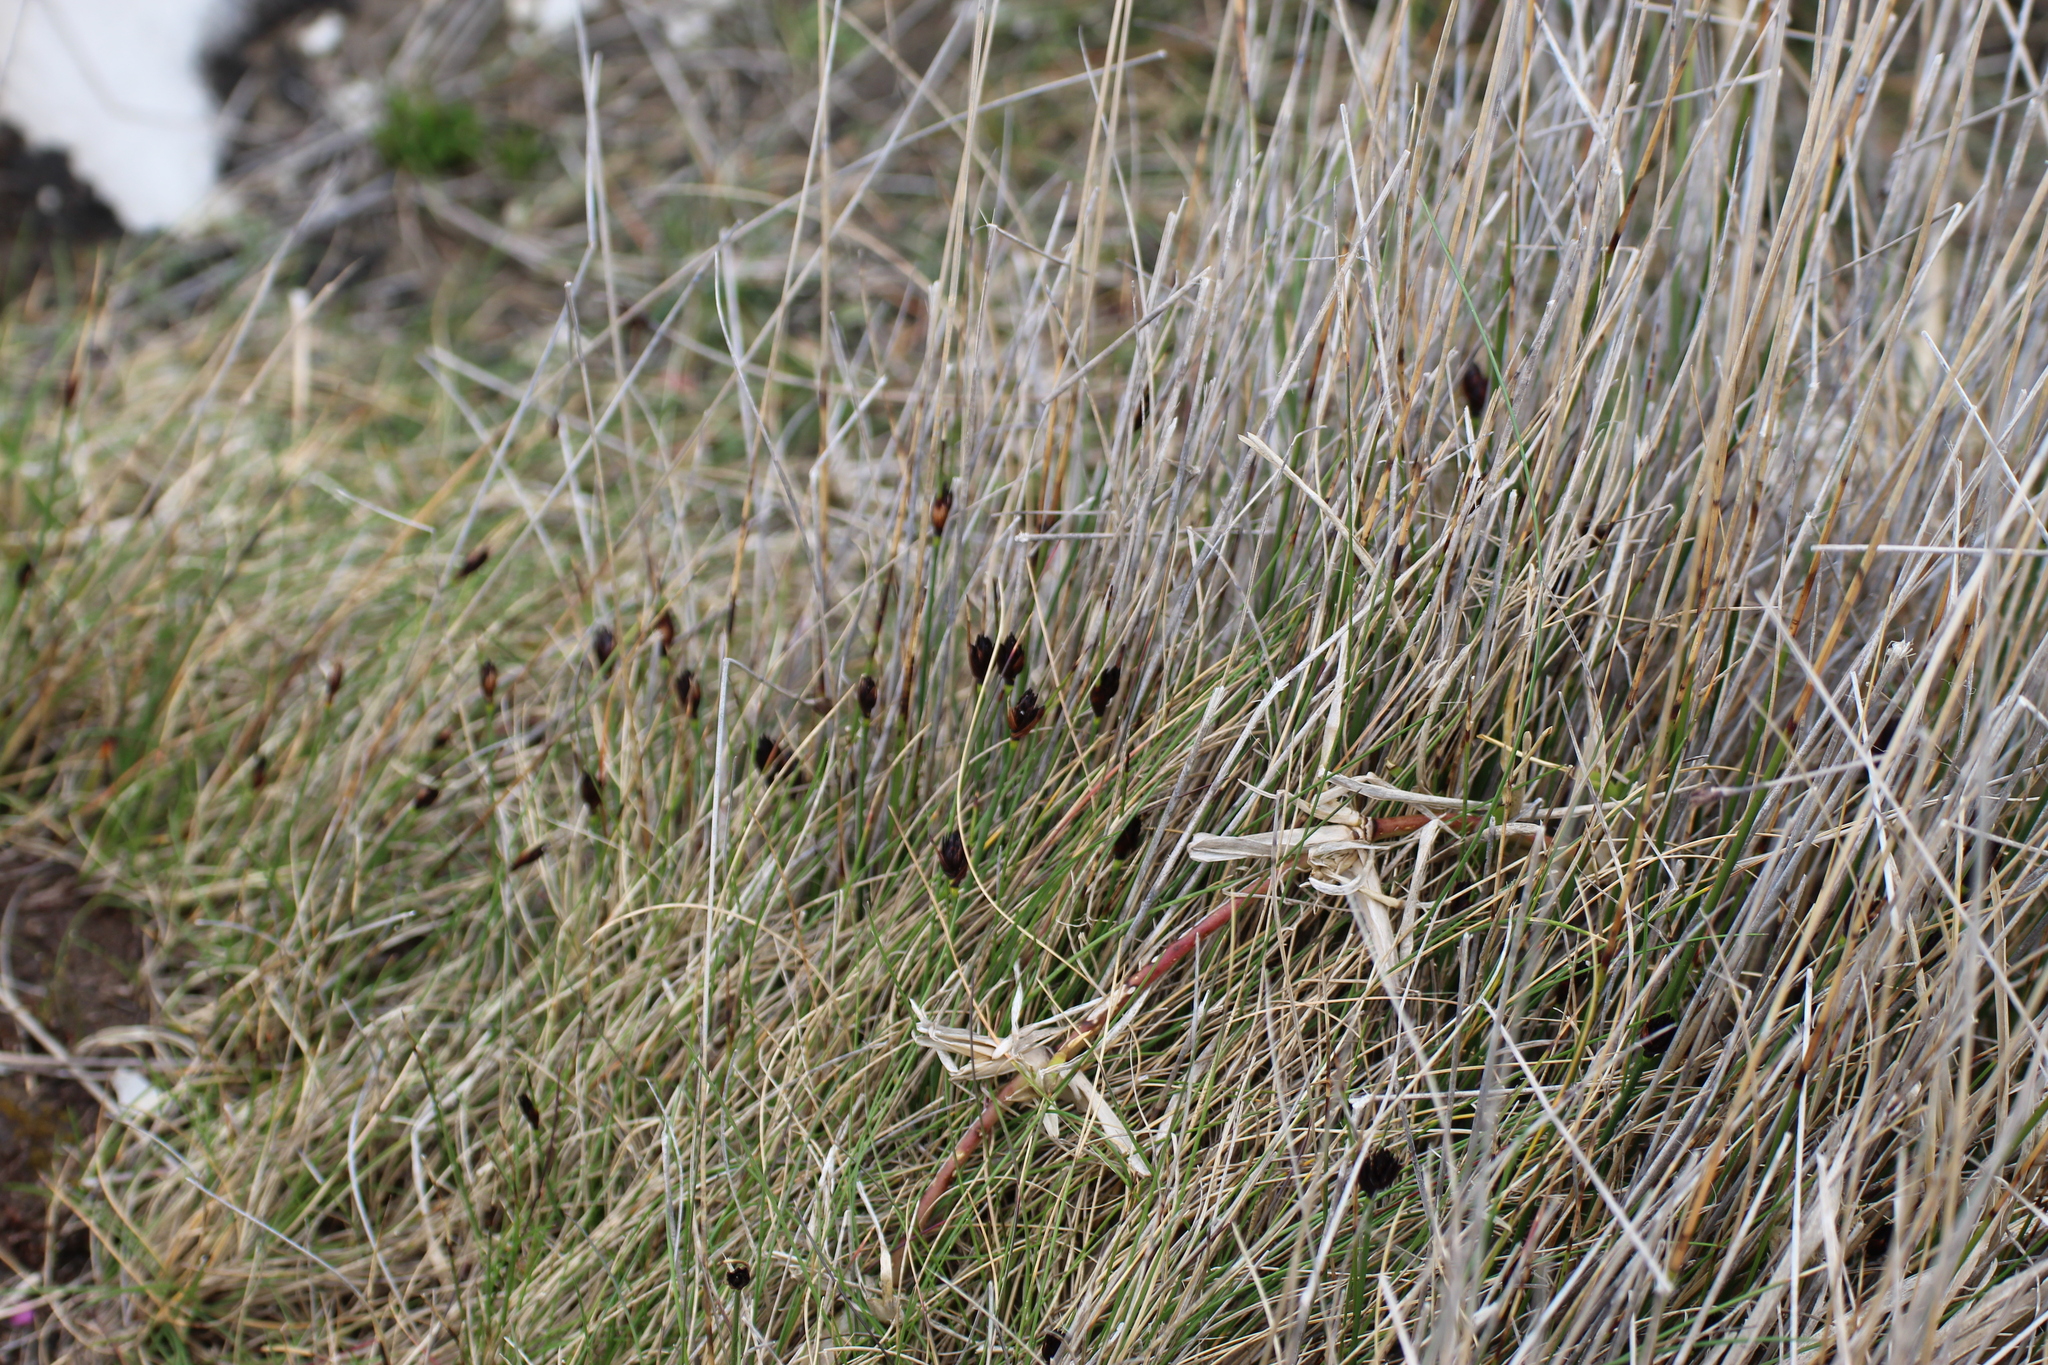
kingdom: Plantae
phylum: Tracheophyta
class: Liliopsida
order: Poales
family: Cyperaceae
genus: Schoenus
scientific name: Schoenus nigricans
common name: Black bog-rush
